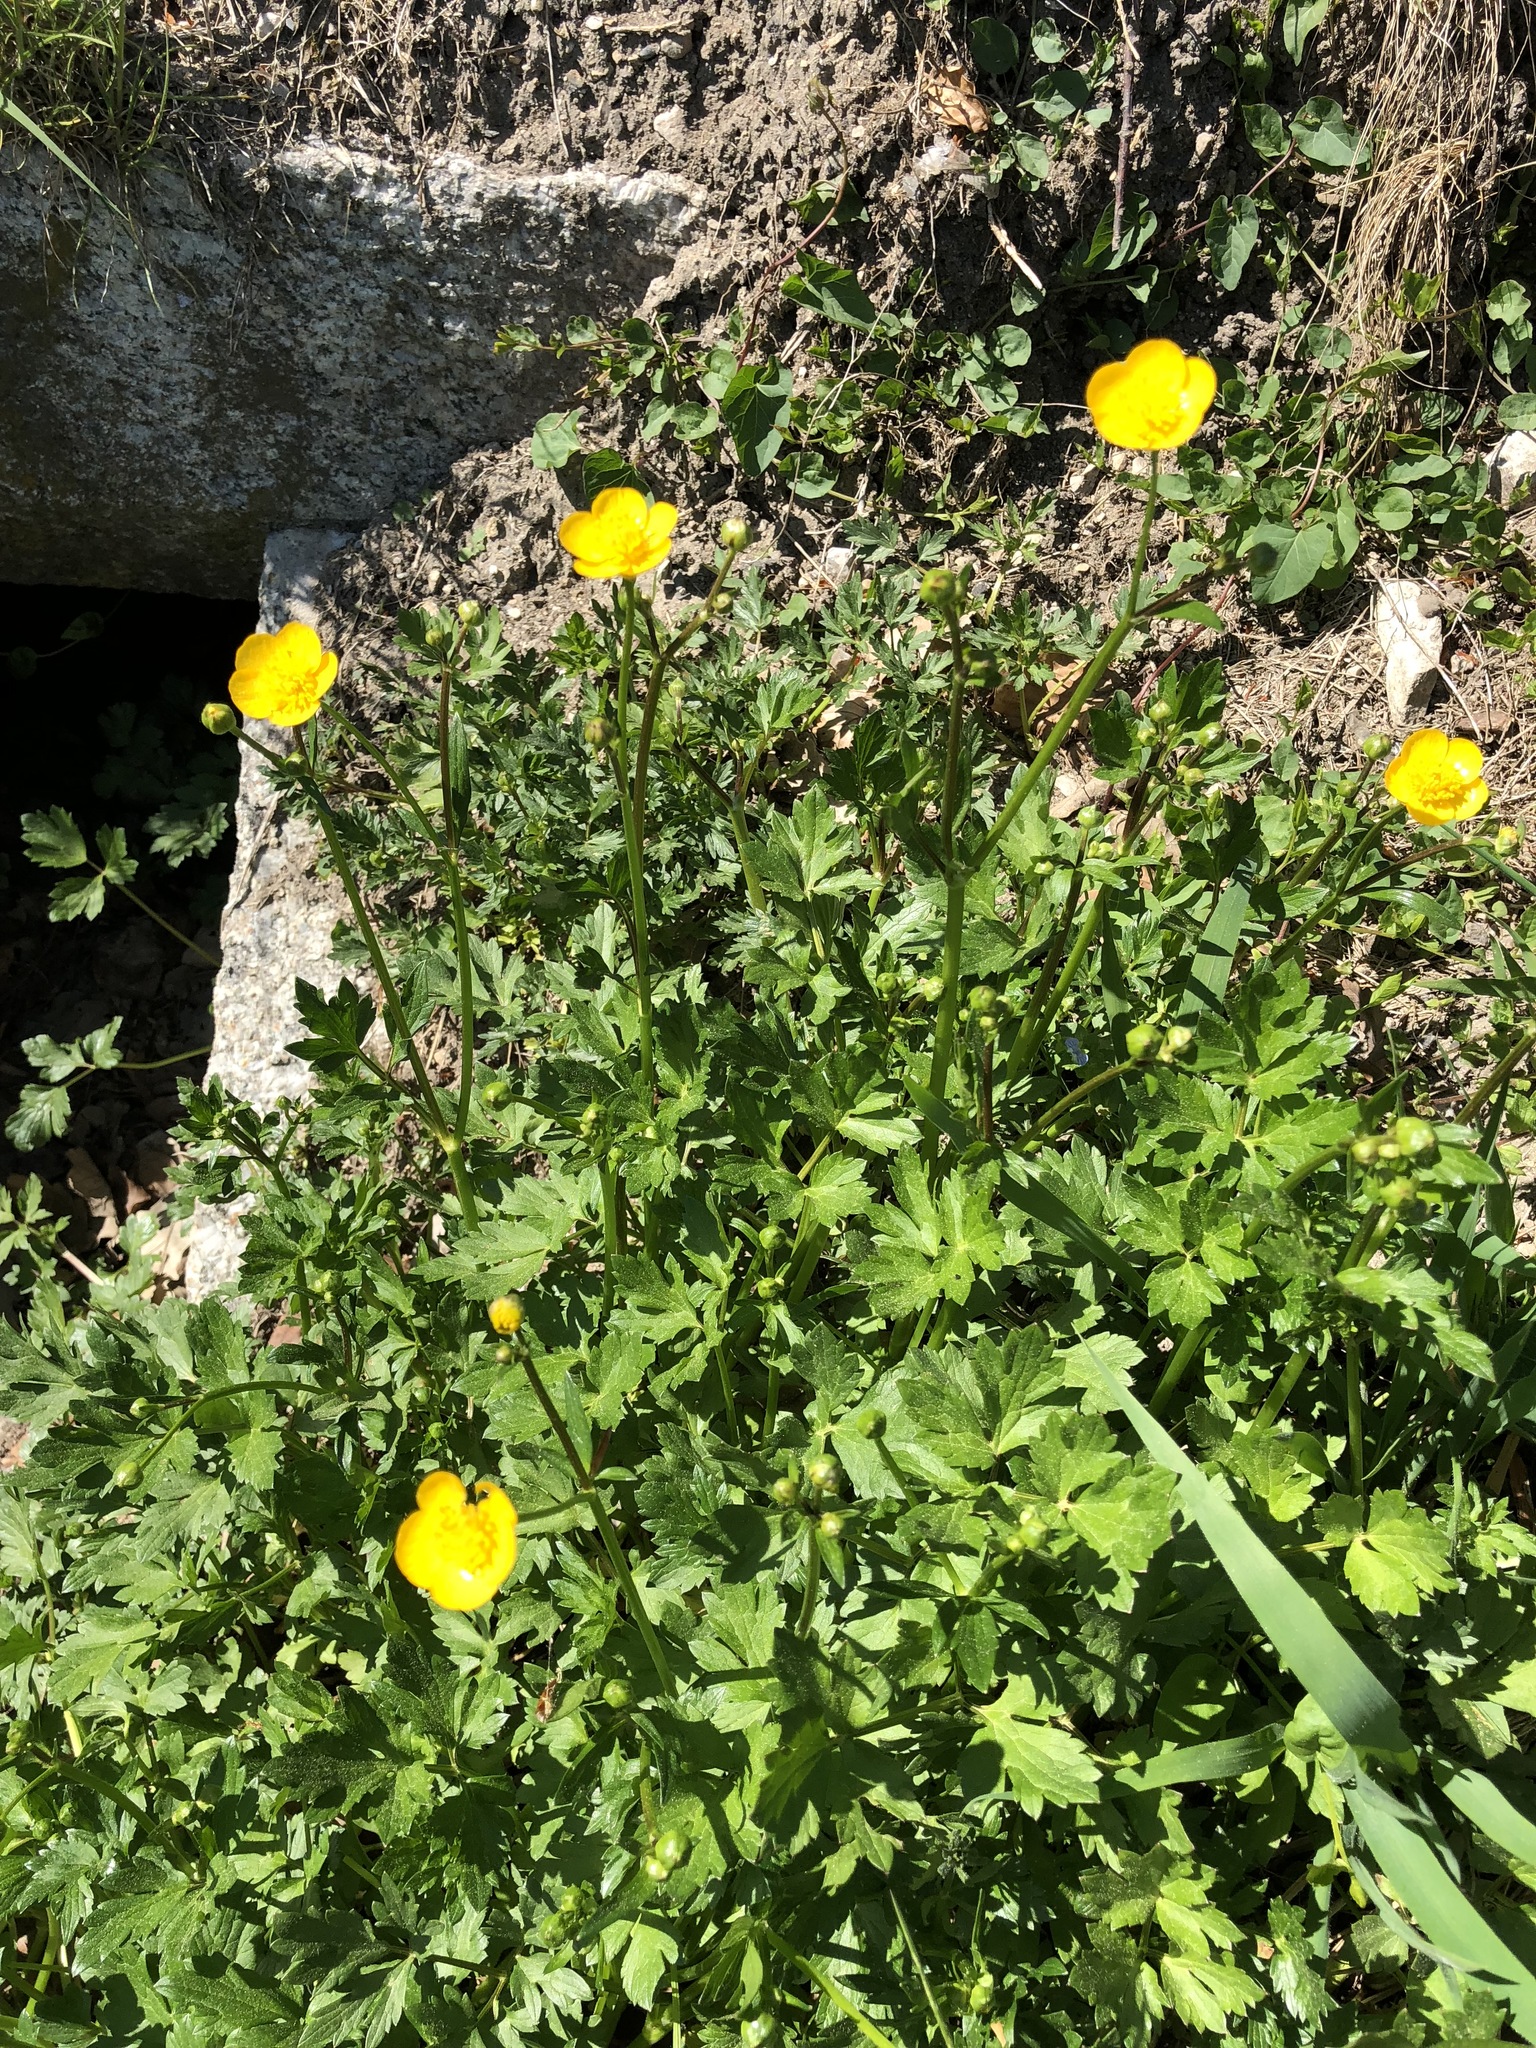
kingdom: Plantae
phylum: Tracheophyta
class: Magnoliopsida
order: Ranunculales
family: Ranunculaceae
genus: Ranunculus
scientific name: Ranunculus repens
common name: Creeping buttercup
